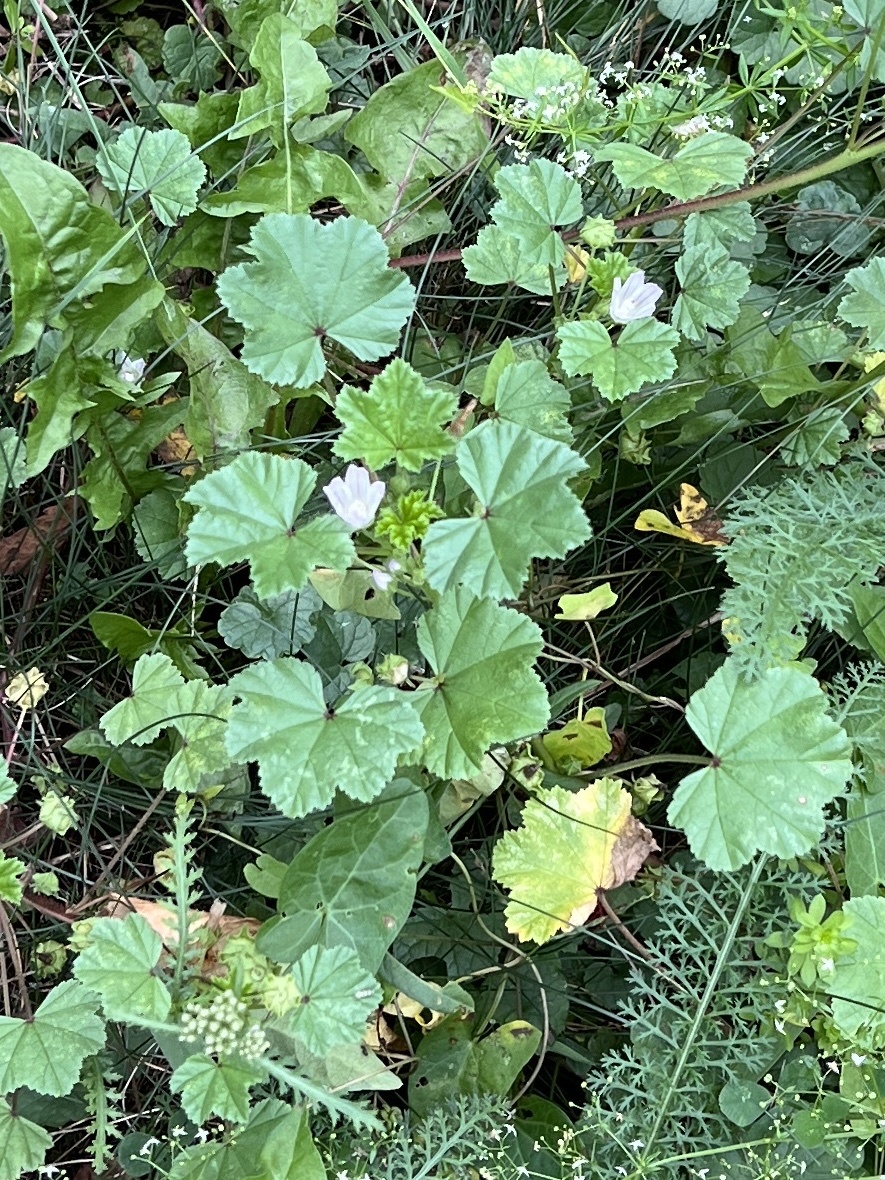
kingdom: Plantae
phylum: Tracheophyta
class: Magnoliopsida
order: Malvales
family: Malvaceae
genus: Malva
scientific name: Malva neglecta
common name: Common mallow
